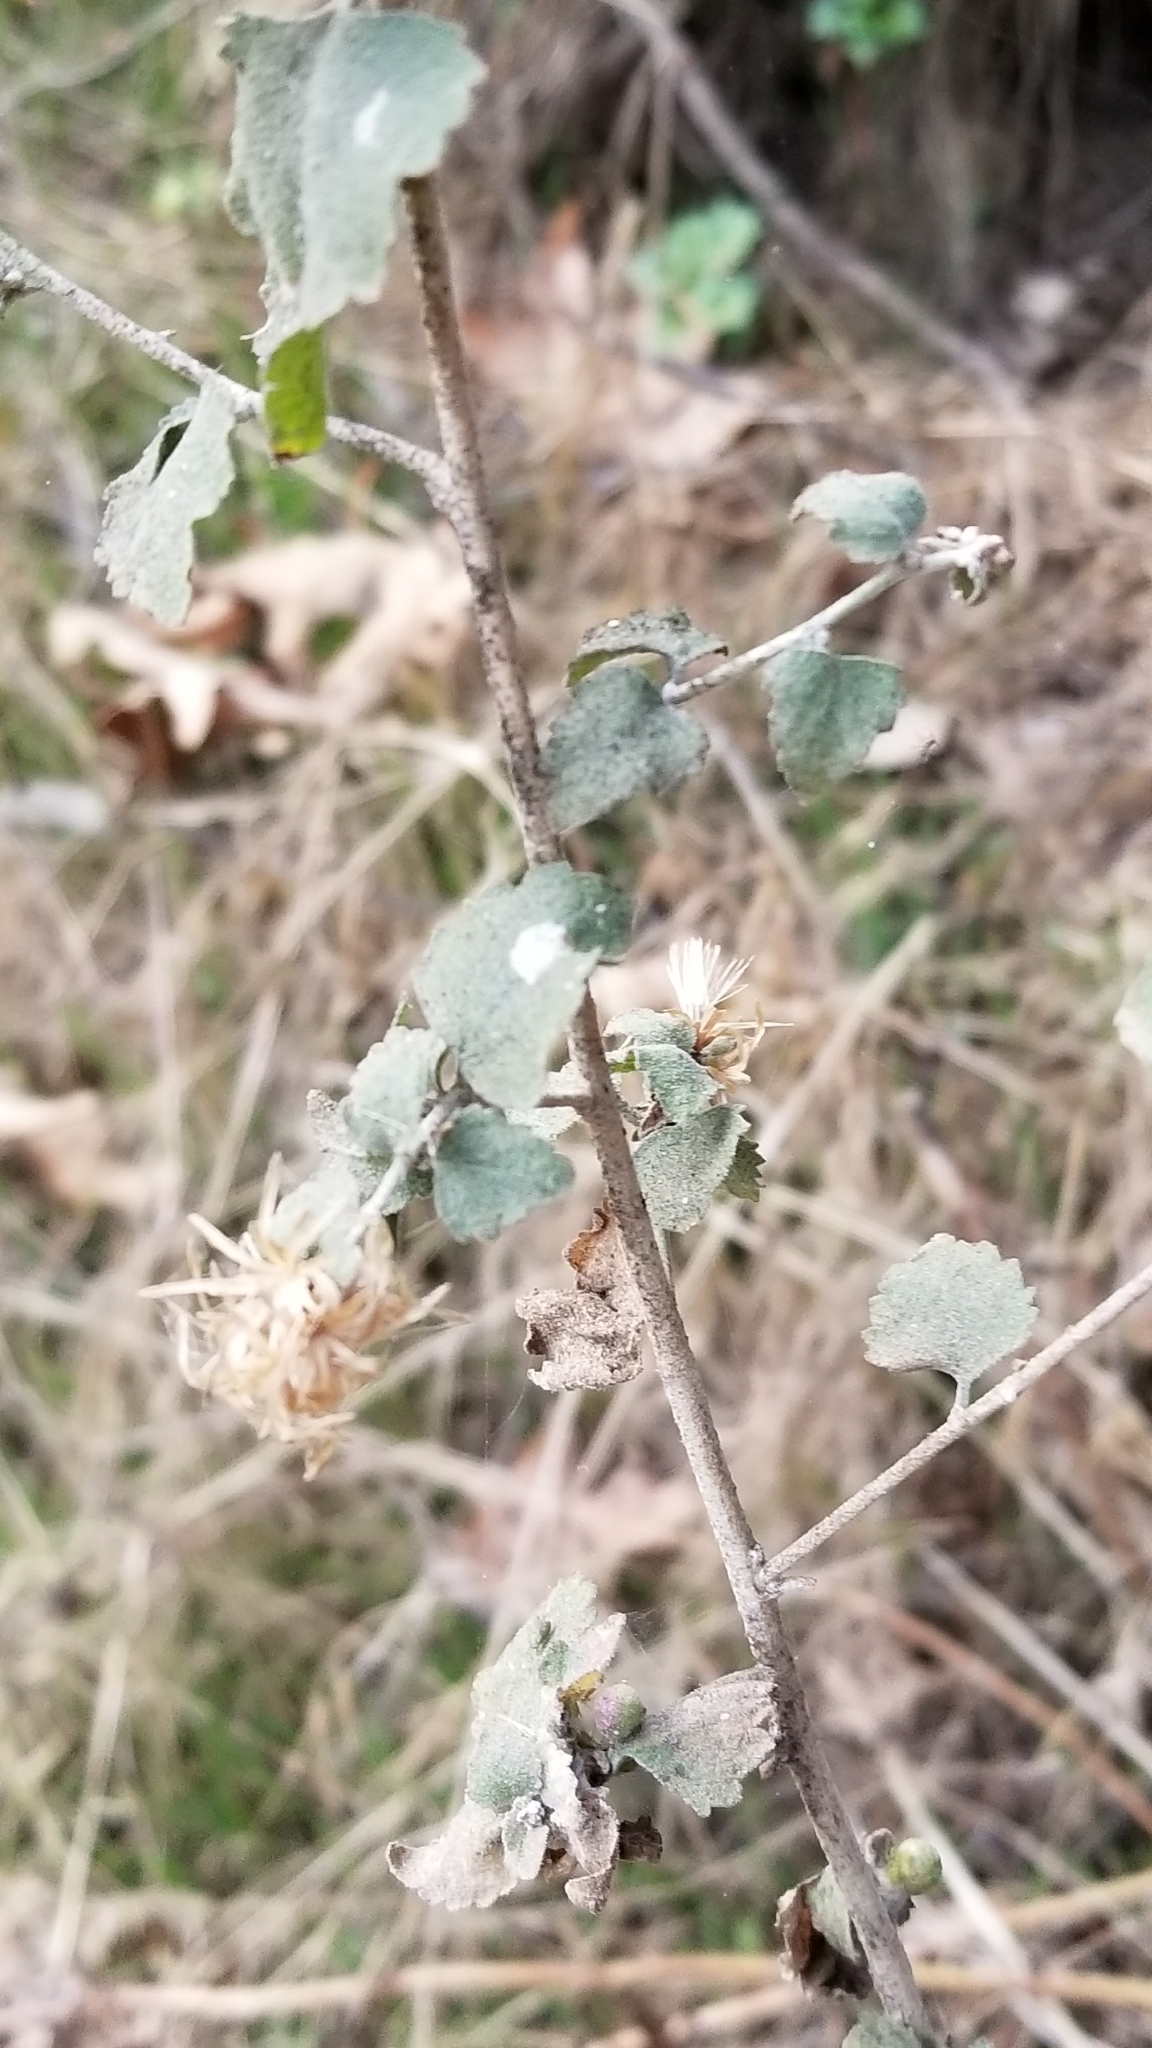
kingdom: Plantae
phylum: Tracheophyta
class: Magnoliopsida
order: Asterales
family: Asteraceae
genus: Brickellia
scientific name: Brickellia californica
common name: California brickellbush
